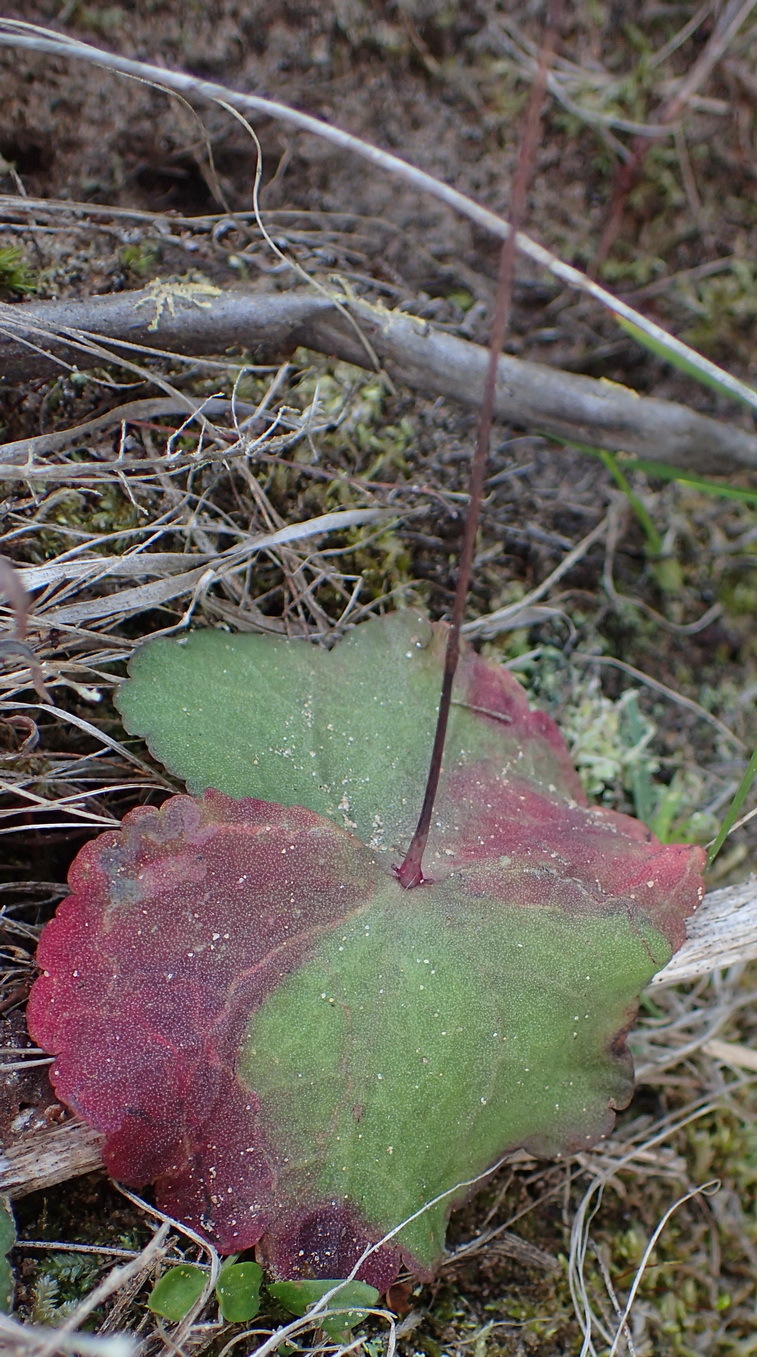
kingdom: Plantae
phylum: Tracheophyta
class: Magnoliopsida
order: Saxifragales
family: Crassulaceae
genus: Crassula
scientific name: Crassula saxifraga
